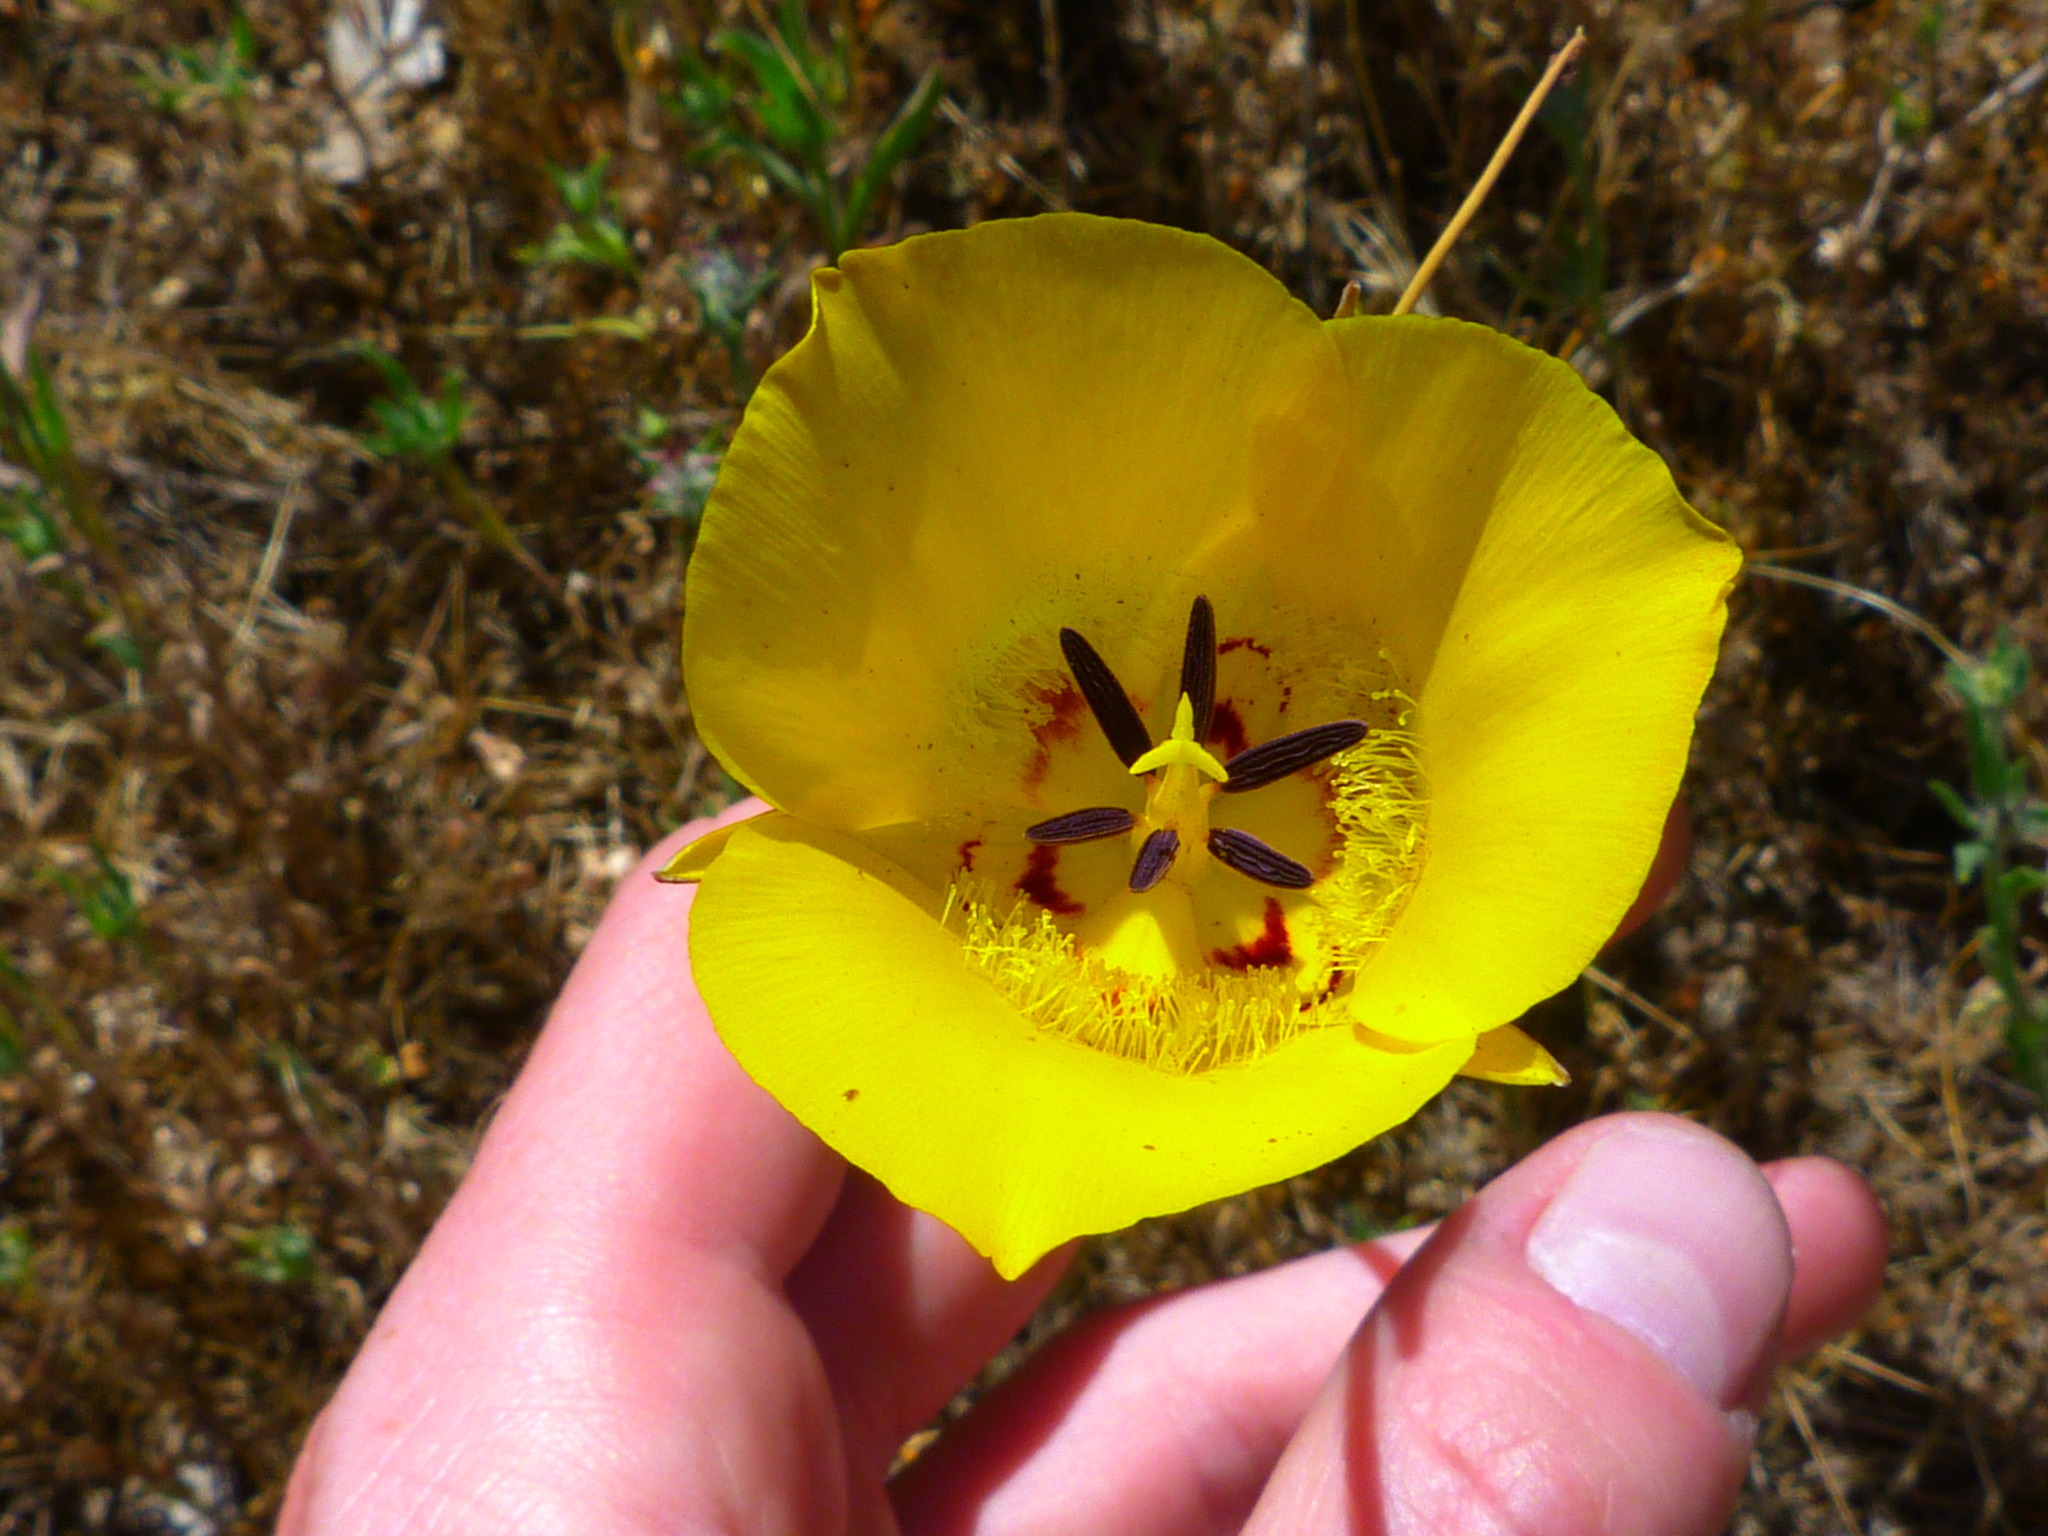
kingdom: Plantae
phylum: Tracheophyta
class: Liliopsida
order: Liliales
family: Liliaceae
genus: Calochortus
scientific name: Calochortus clavatus
